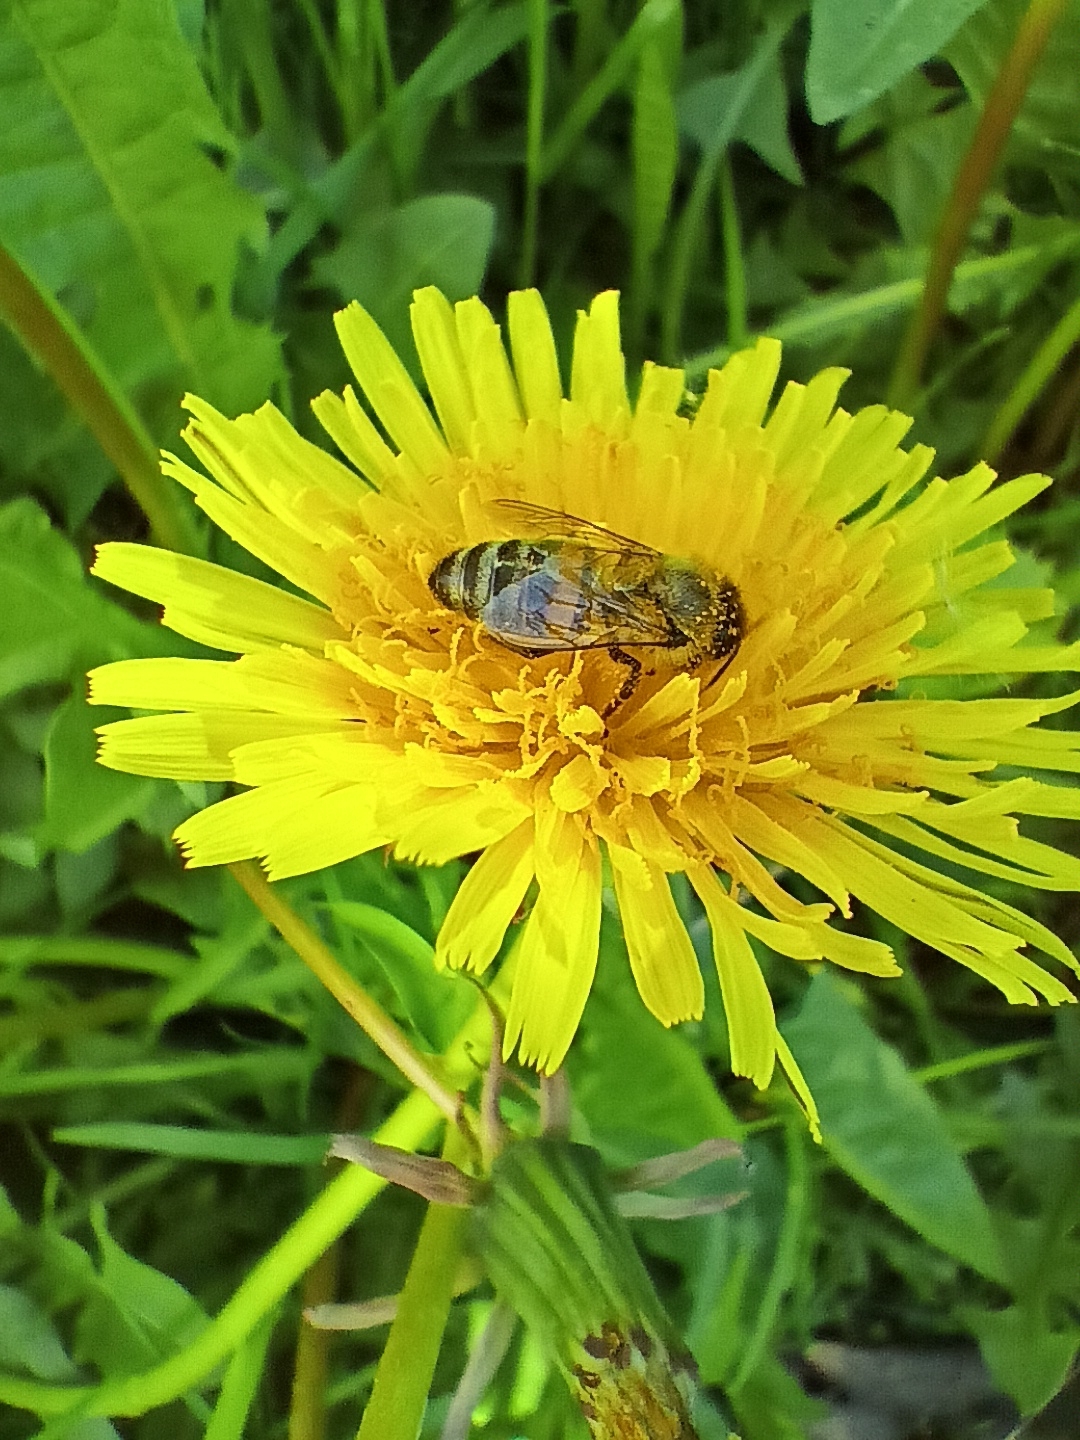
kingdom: Animalia
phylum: Arthropoda
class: Insecta
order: Hymenoptera
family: Apidae
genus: Apis
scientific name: Apis mellifera
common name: Honey bee
